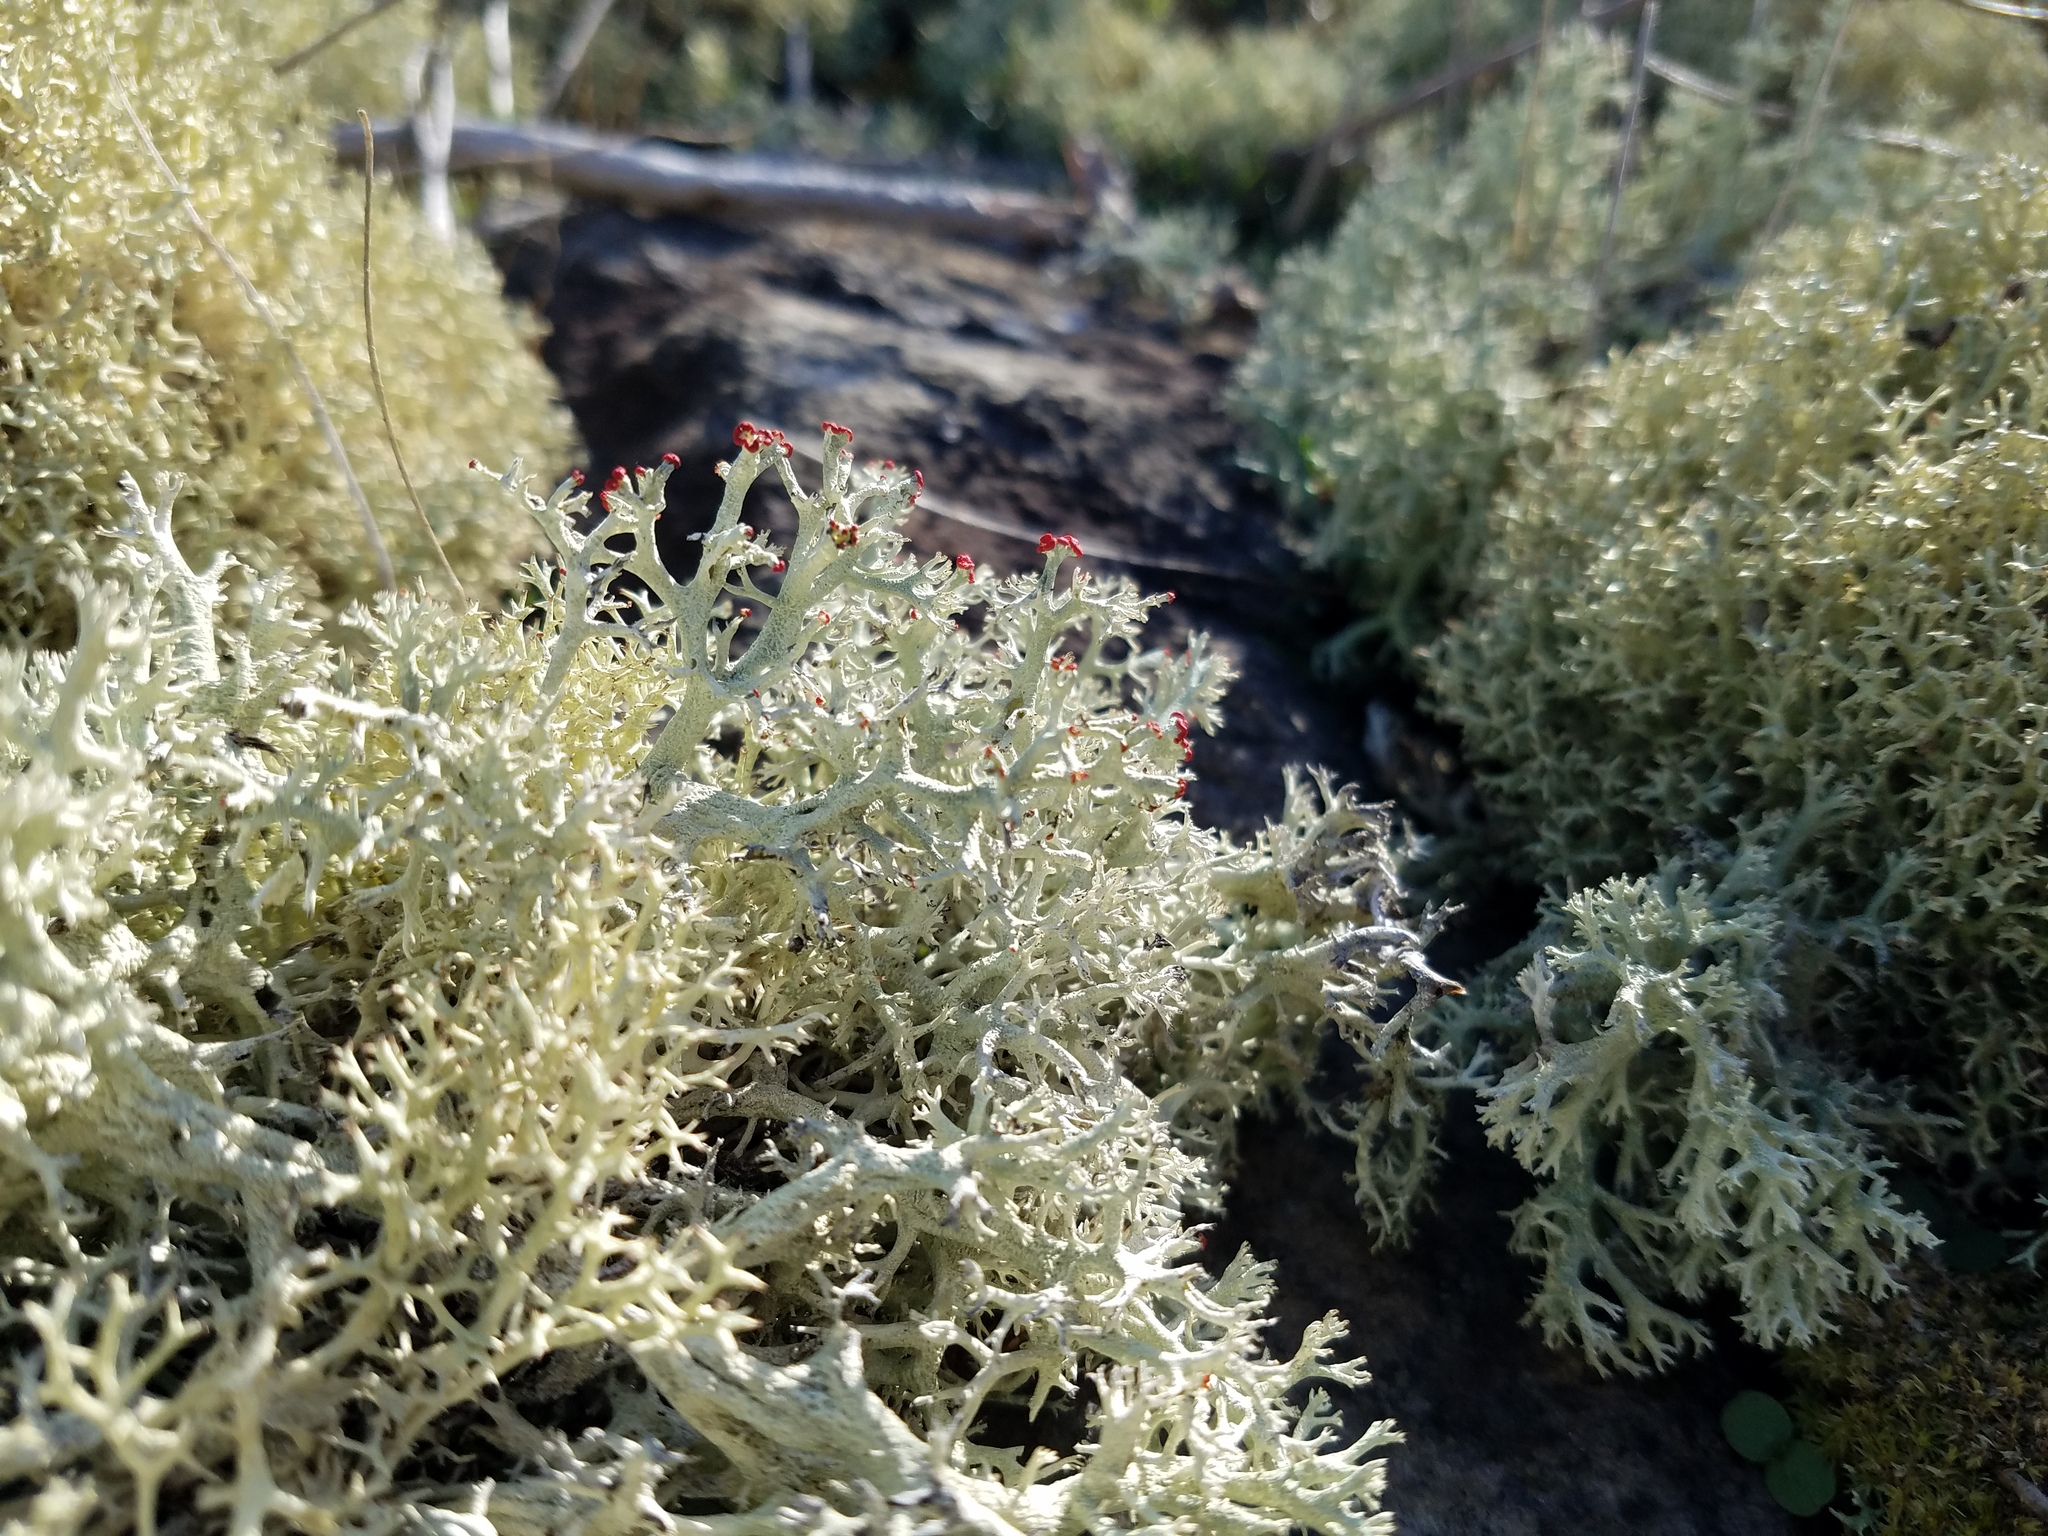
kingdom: Fungi
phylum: Ascomycota
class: Lecanoromycetes
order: Lecanorales
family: Cladoniaceae
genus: Cladonia
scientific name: Cladonia leporina
